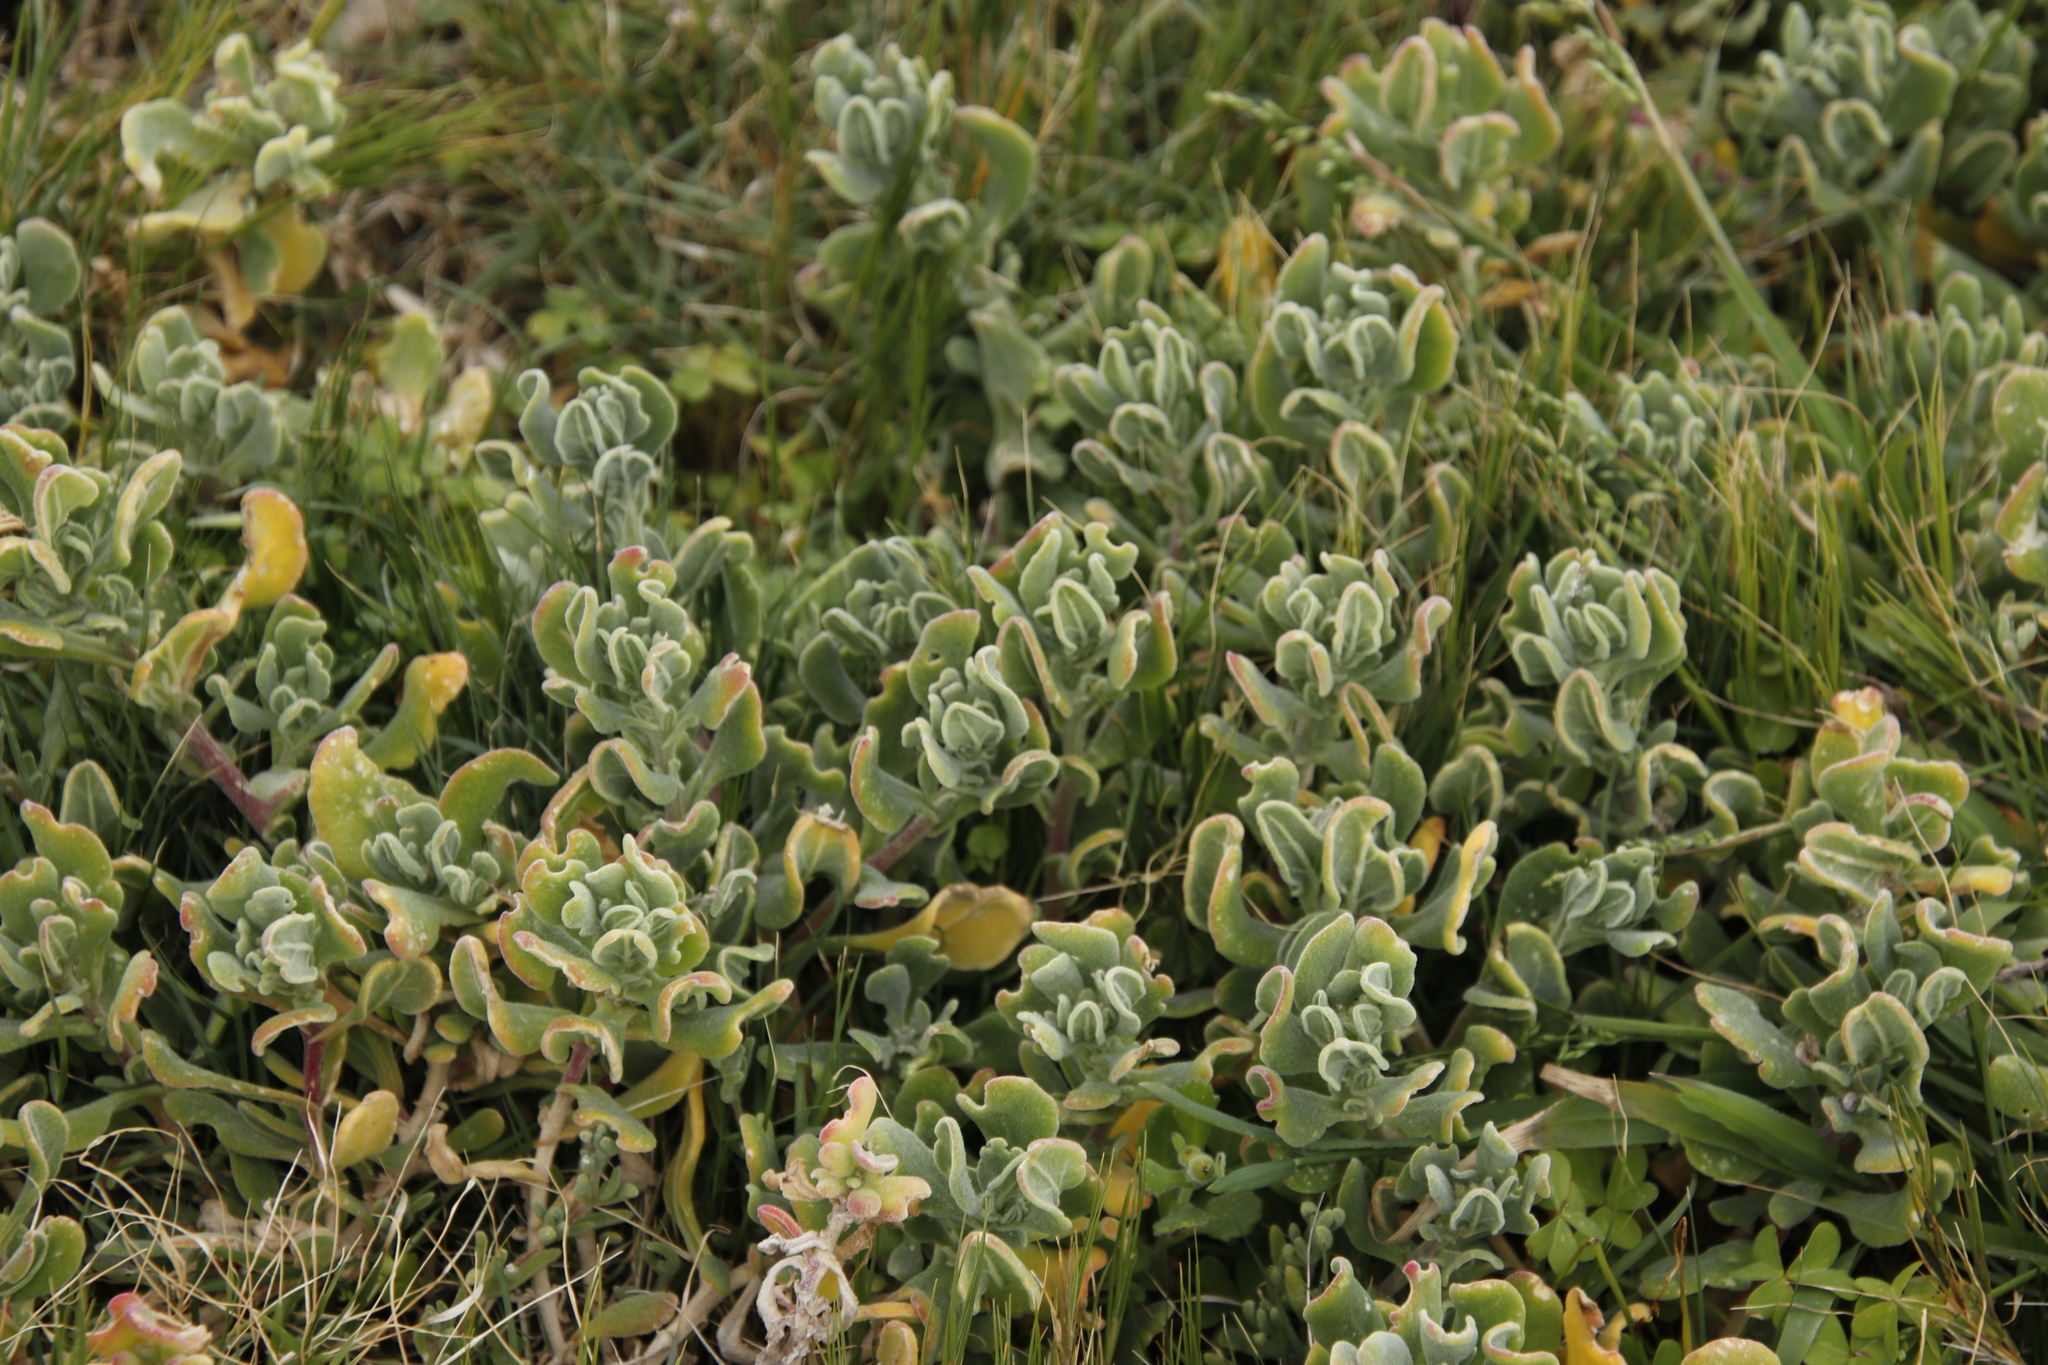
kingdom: Plantae
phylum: Tracheophyta
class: Magnoliopsida
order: Caryophyllales
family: Aizoaceae
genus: Tetragonia
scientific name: Tetragonia decumbens
